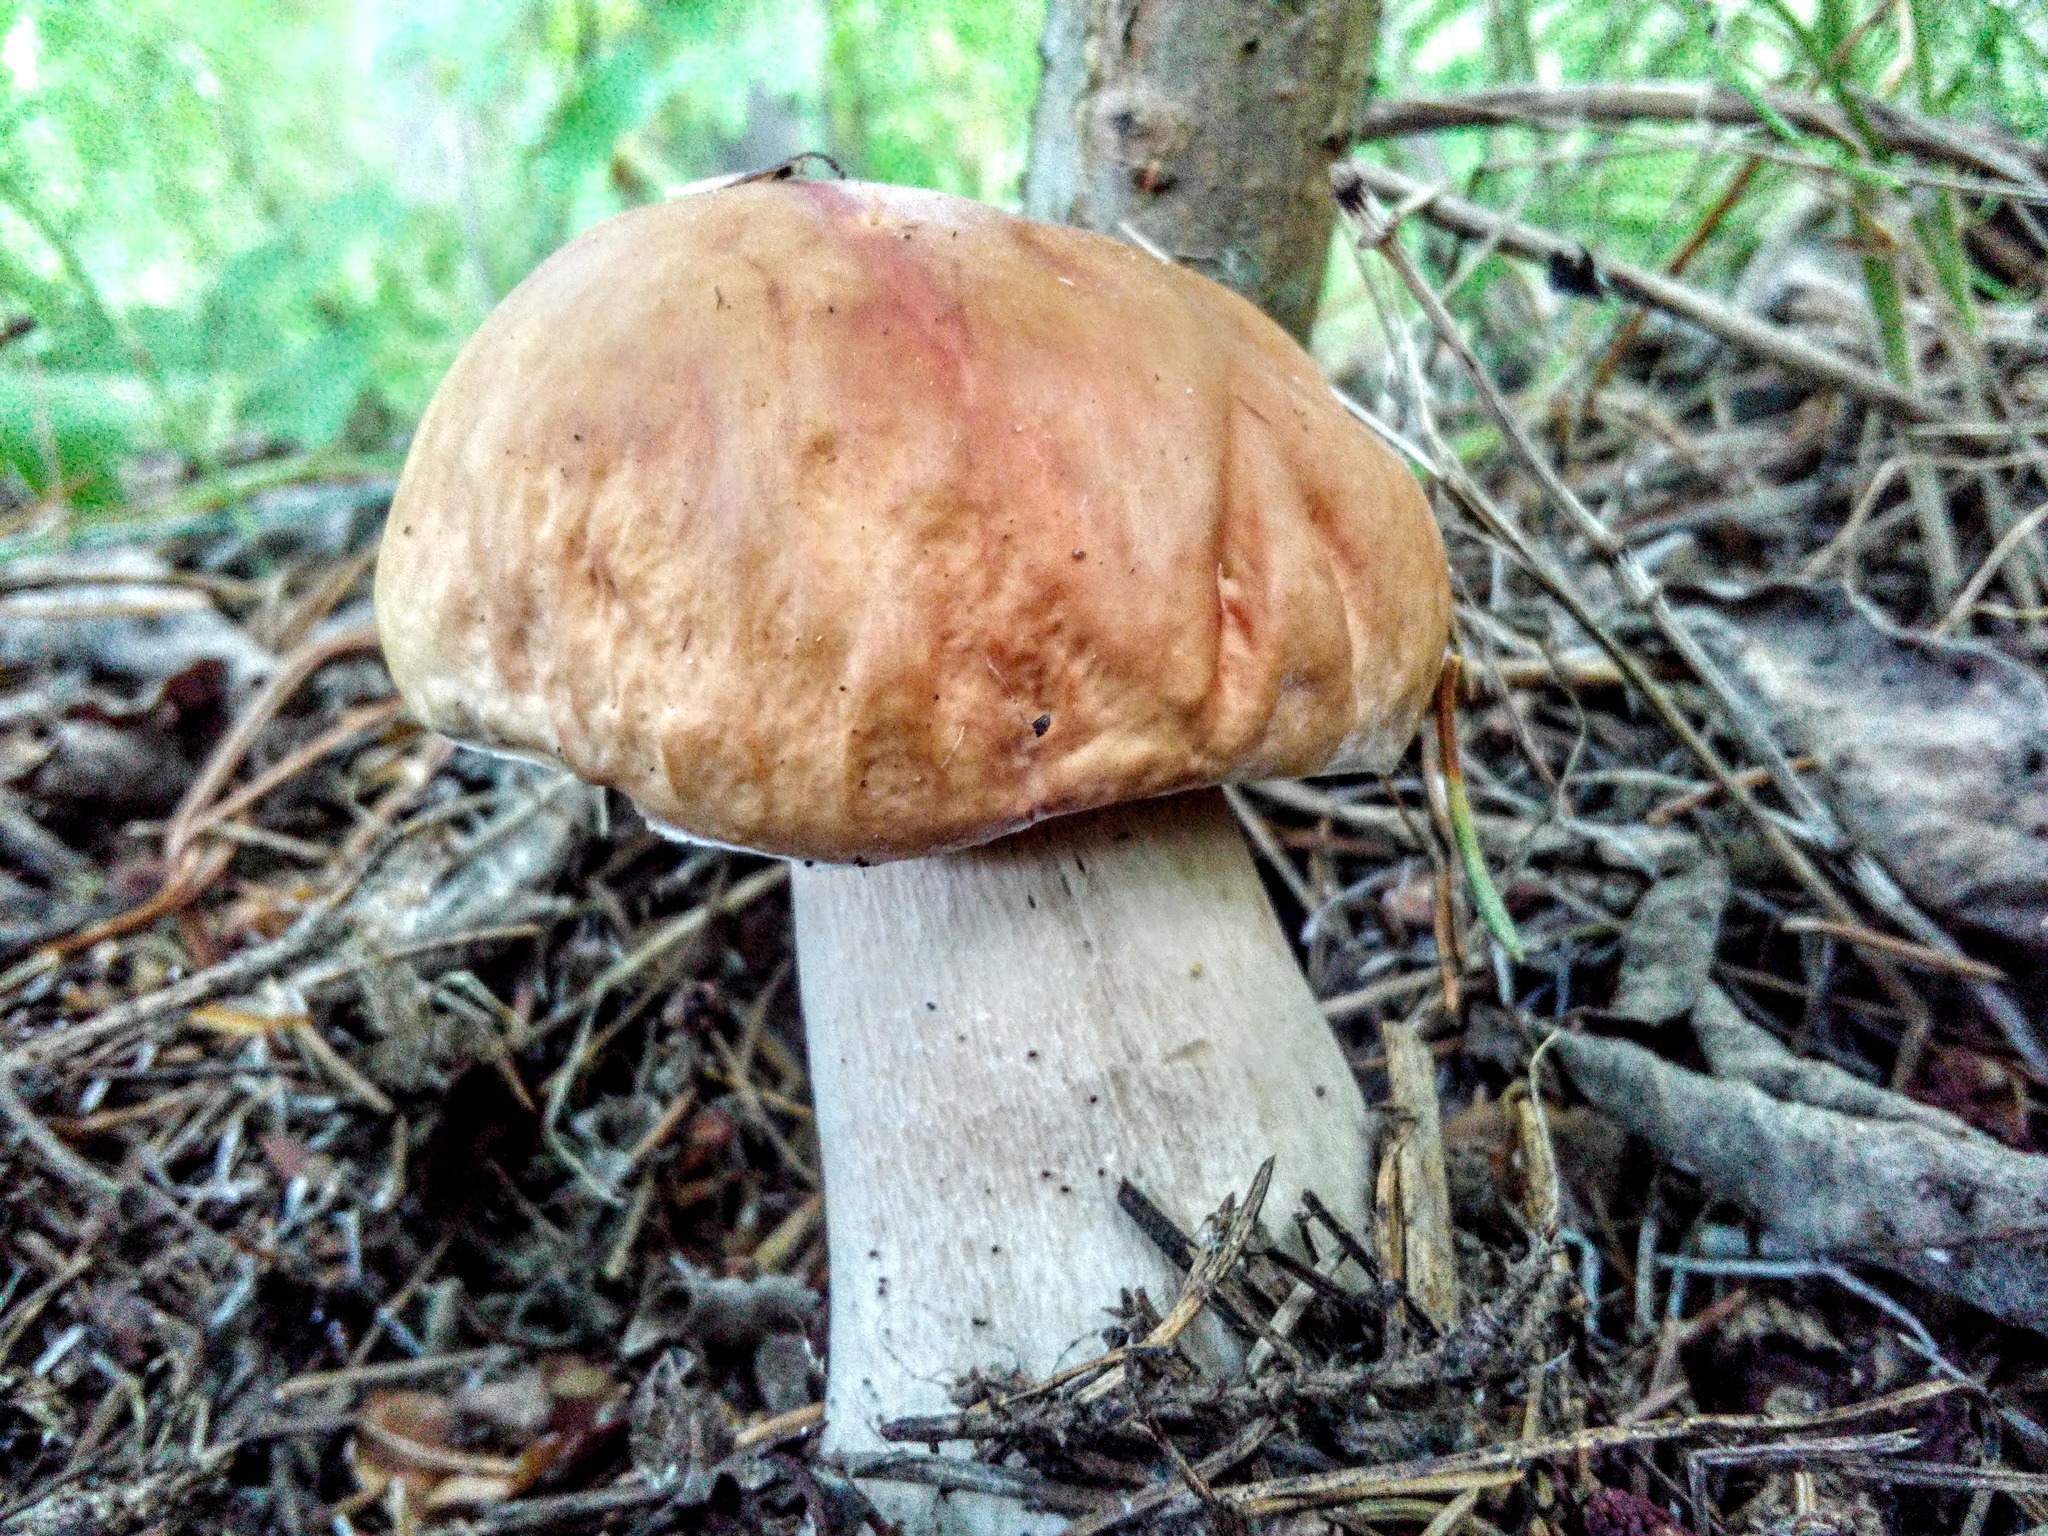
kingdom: Fungi
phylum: Basidiomycota
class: Agaricomycetes
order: Boletales
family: Boletaceae
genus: Boletus
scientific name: Boletus edulis
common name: Cep
